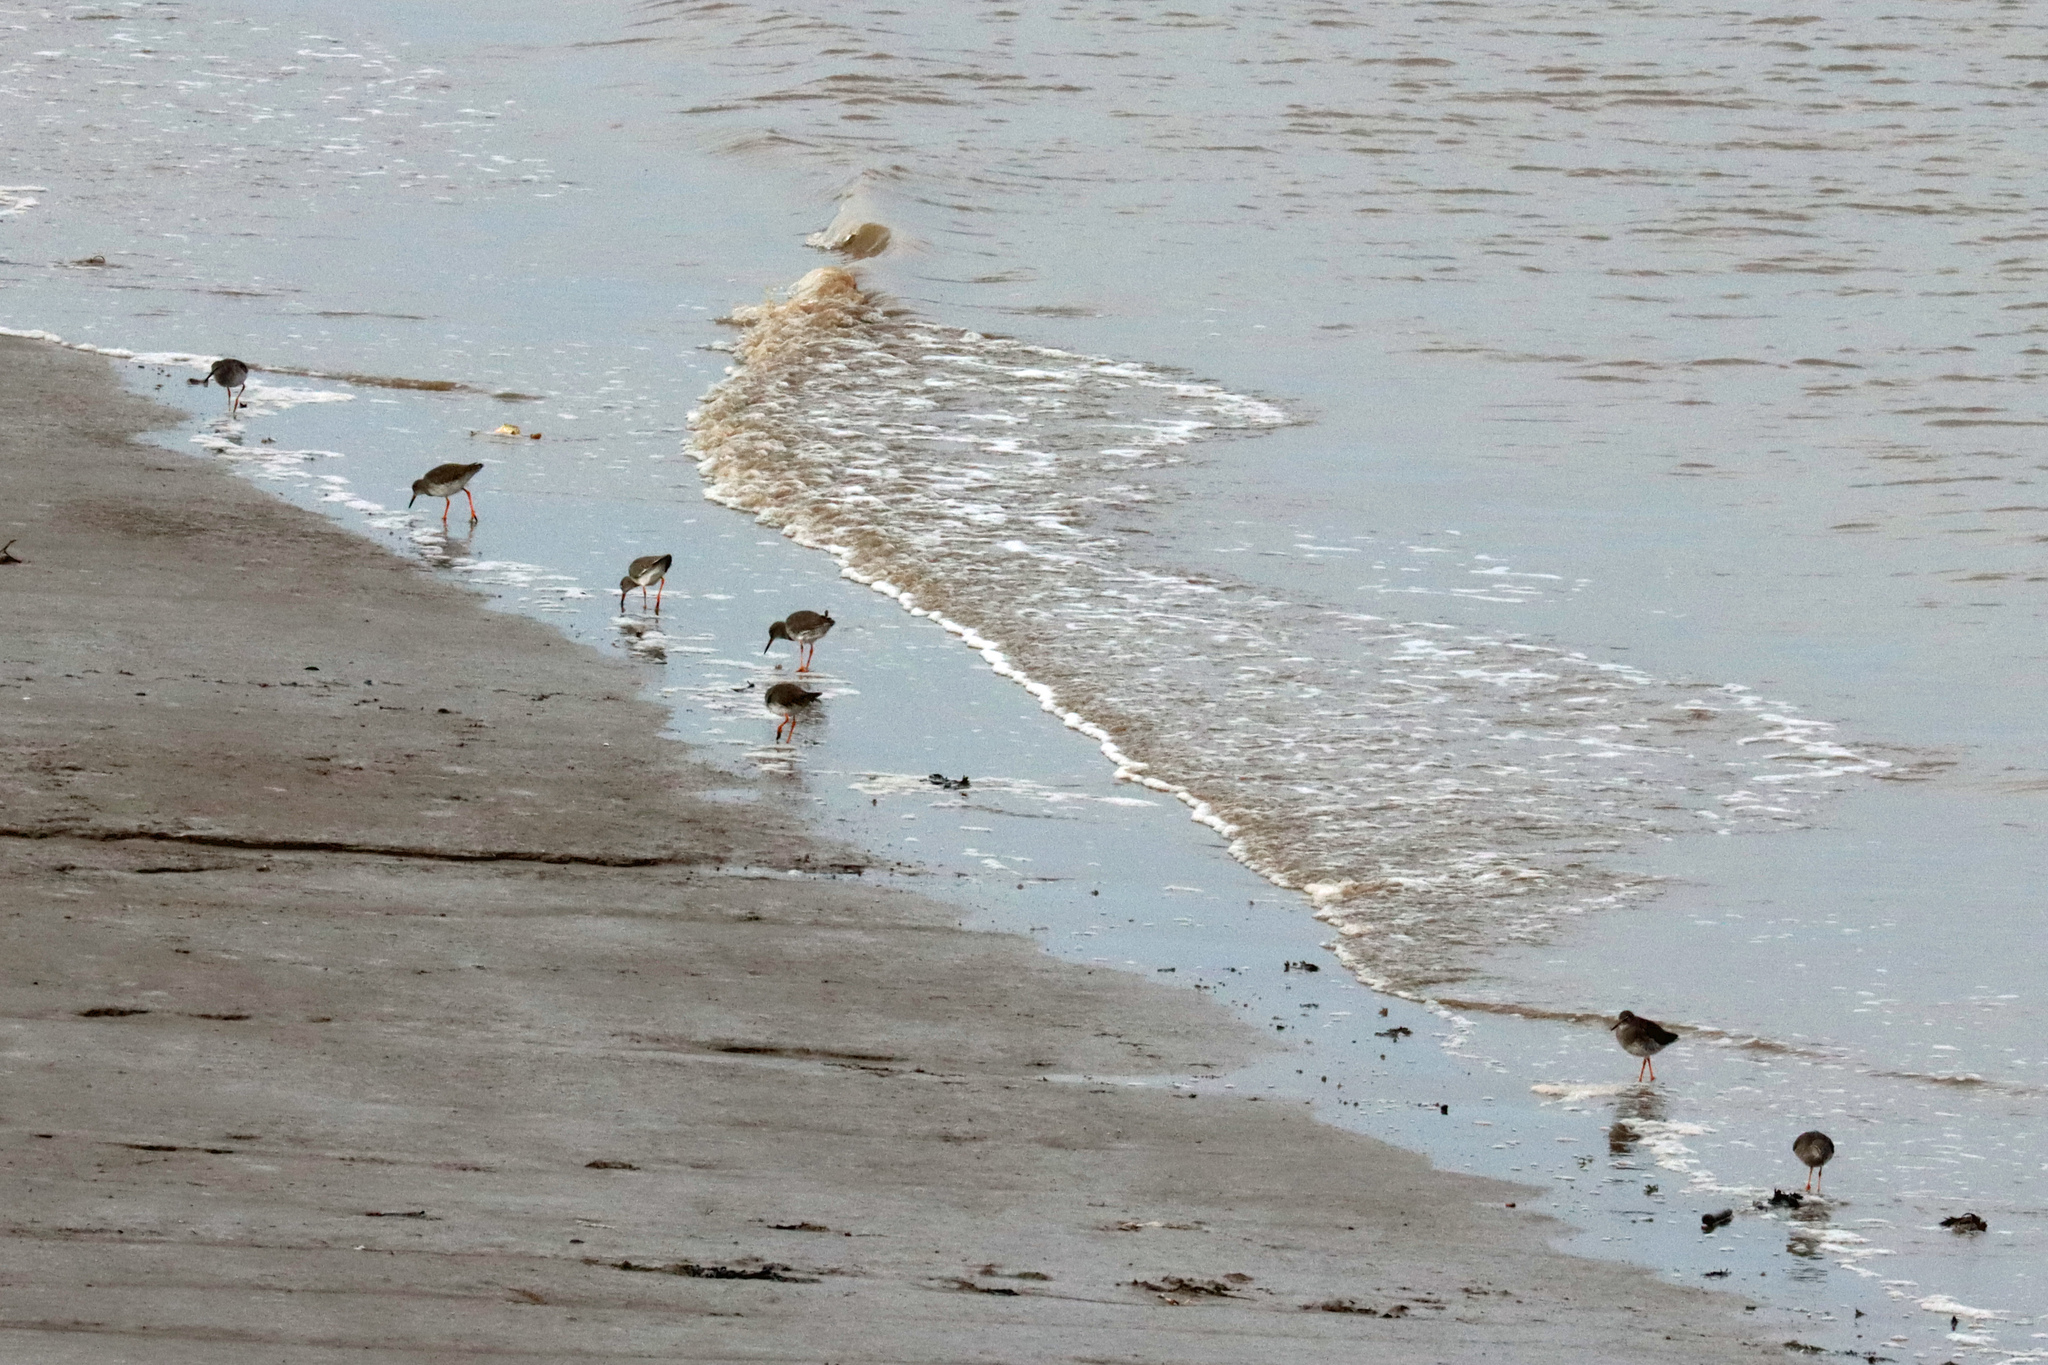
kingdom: Animalia
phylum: Chordata
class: Aves
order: Charadriiformes
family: Scolopacidae
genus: Tringa
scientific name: Tringa totanus
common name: Common redshank
